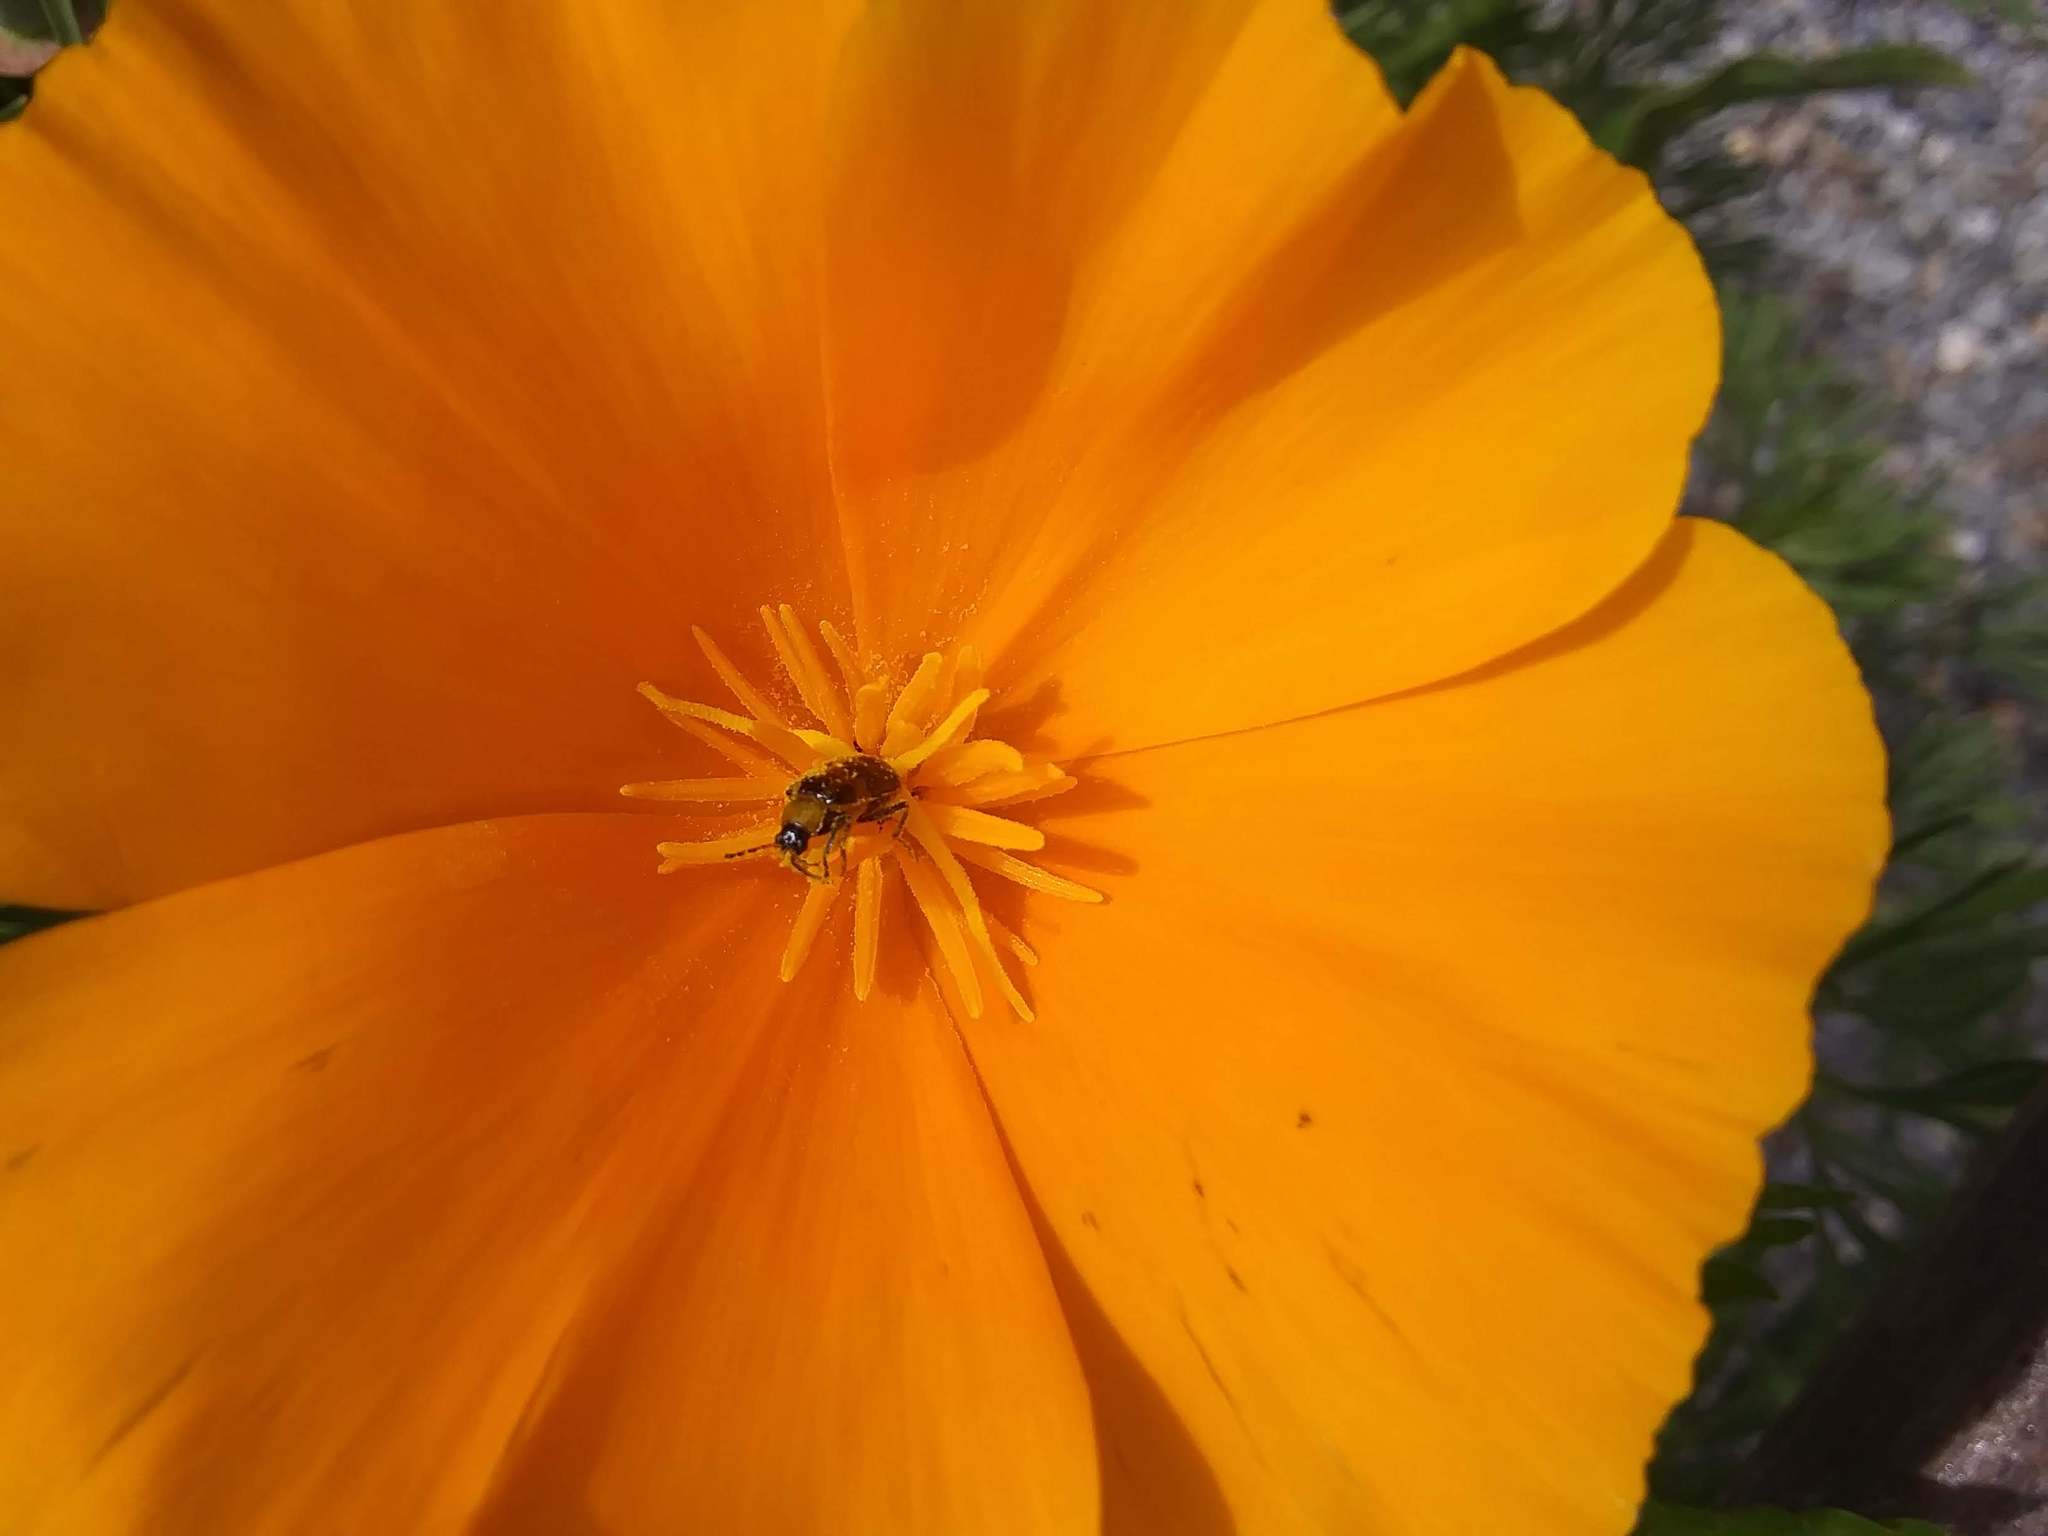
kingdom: Animalia
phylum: Arthropoda
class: Insecta
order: Coleoptera
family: Chrysomelidae
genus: Diabrotica
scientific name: Diabrotica undecimpunctata
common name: Spotted cucumber beetle
